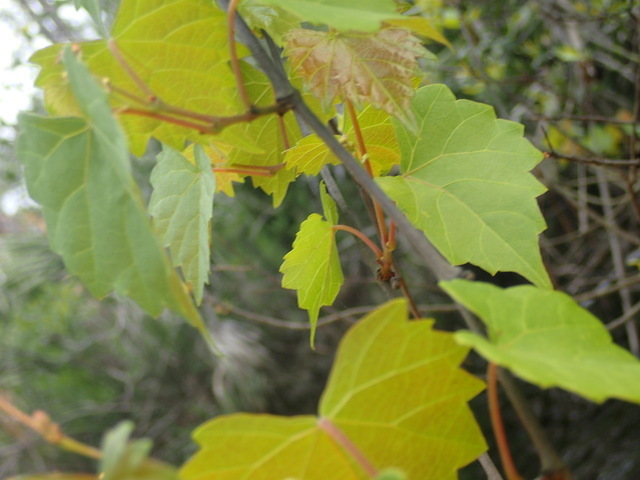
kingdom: Plantae
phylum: Tracheophyta
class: Magnoliopsida
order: Vitales
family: Vitaceae
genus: Vitis
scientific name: Vitis rotundifolia
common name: Muscadine grape
